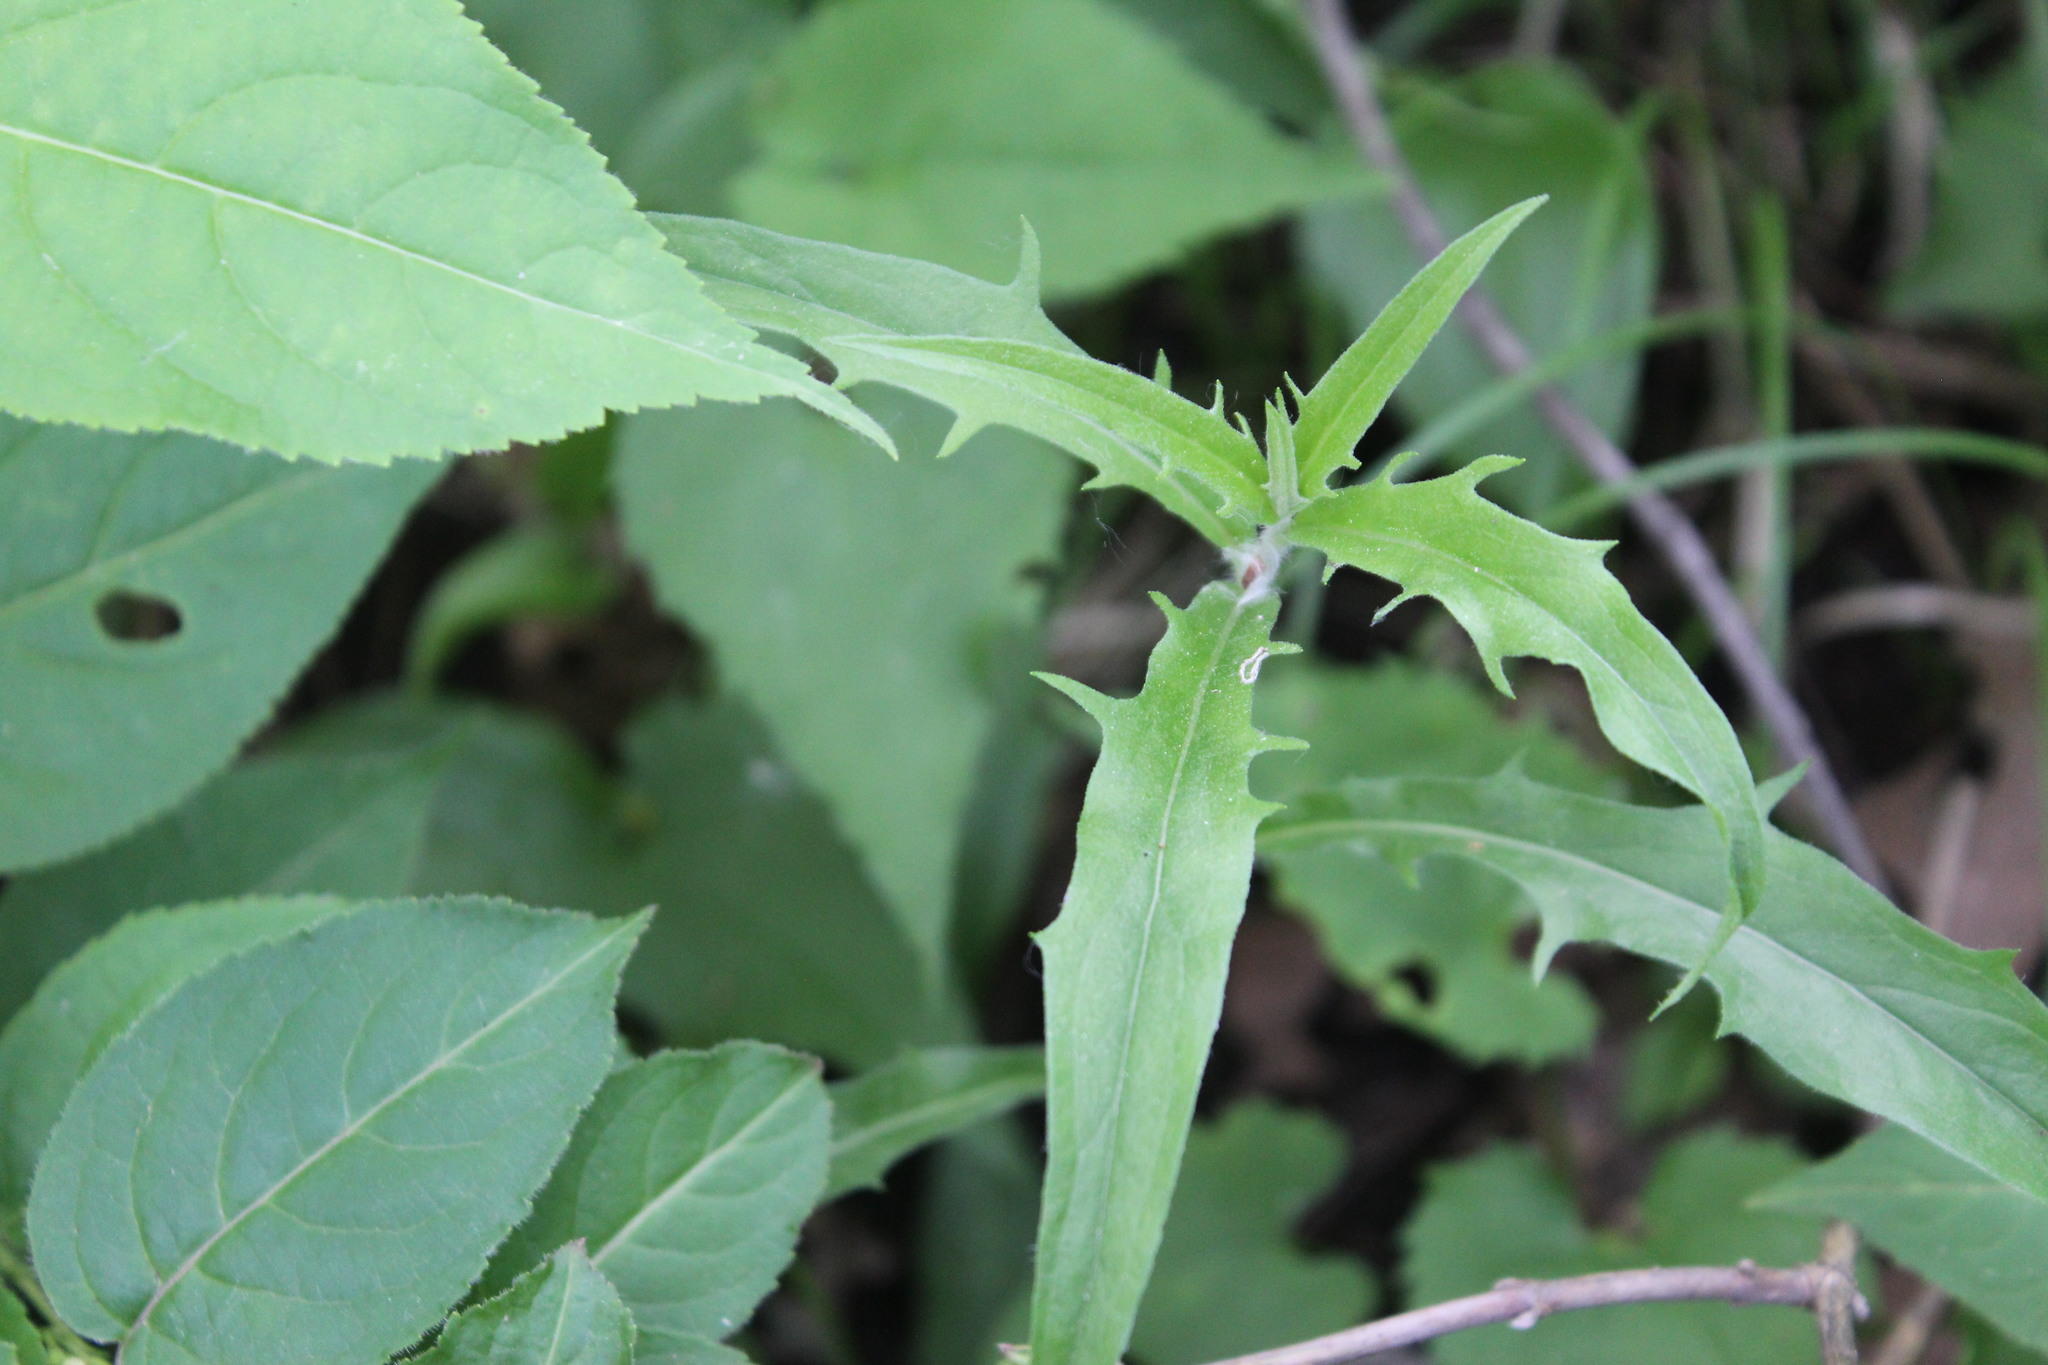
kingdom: Plantae
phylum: Tracheophyta
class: Magnoliopsida
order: Asterales
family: Asteraceae
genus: Hieracium
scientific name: Hieracium umbellatum
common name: Northern hawkweed
